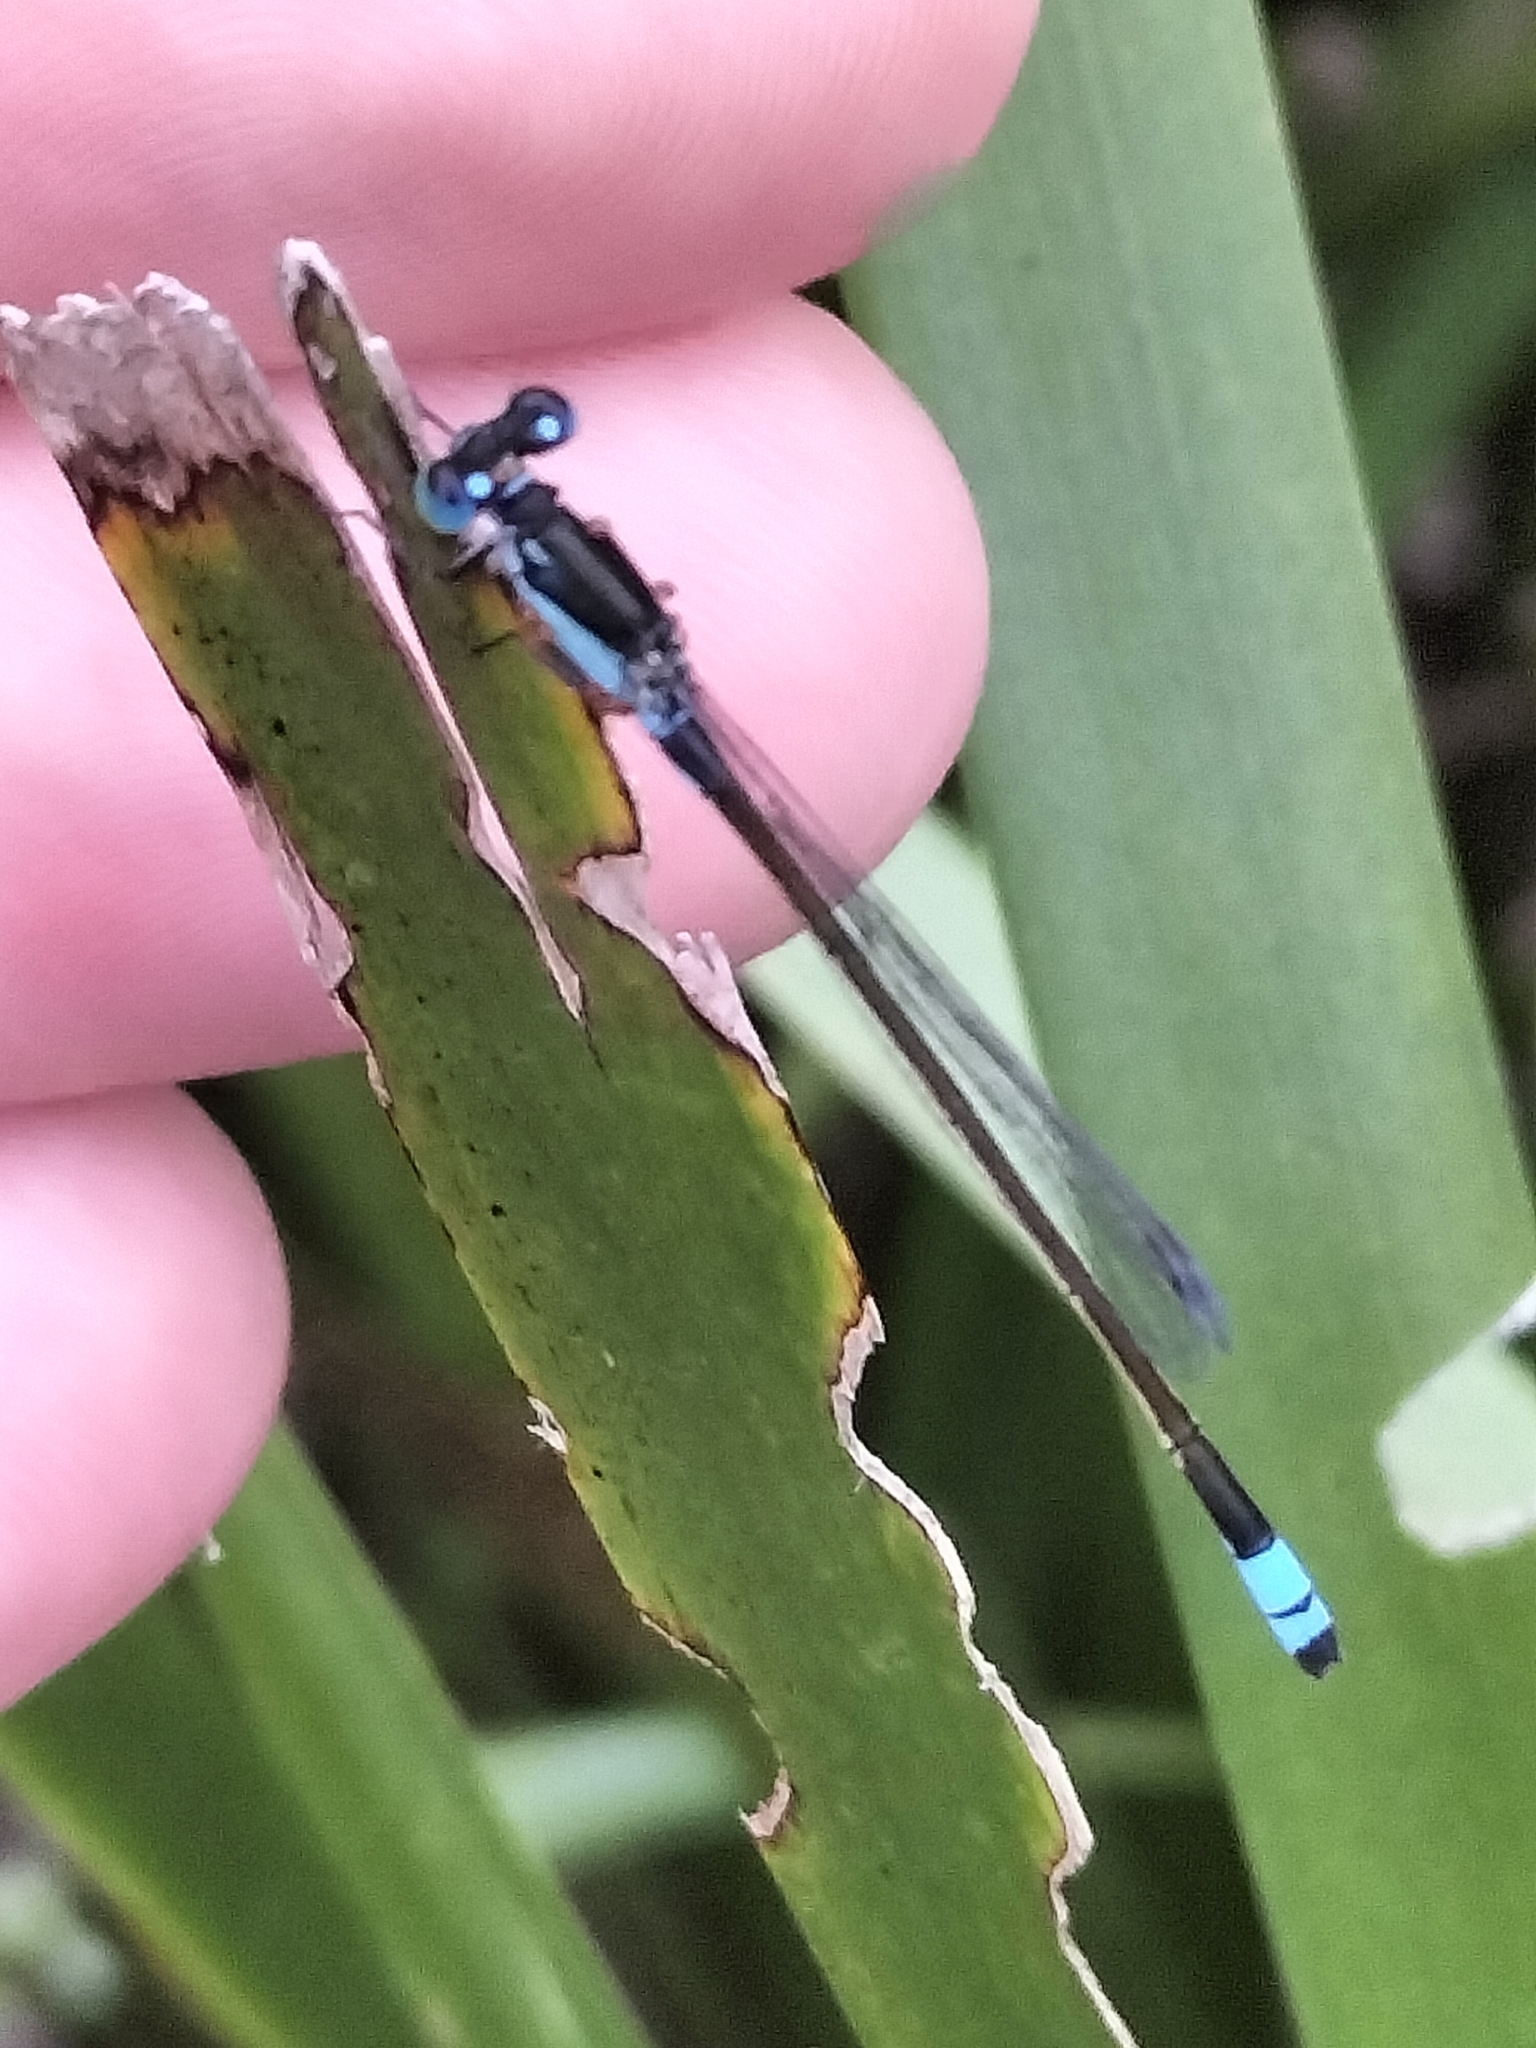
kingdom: Animalia
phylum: Arthropoda
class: Insecta
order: Odonata
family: Coenagrionidae
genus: Ischnura
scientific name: Ischnura heterosticta
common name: Common bluetail
